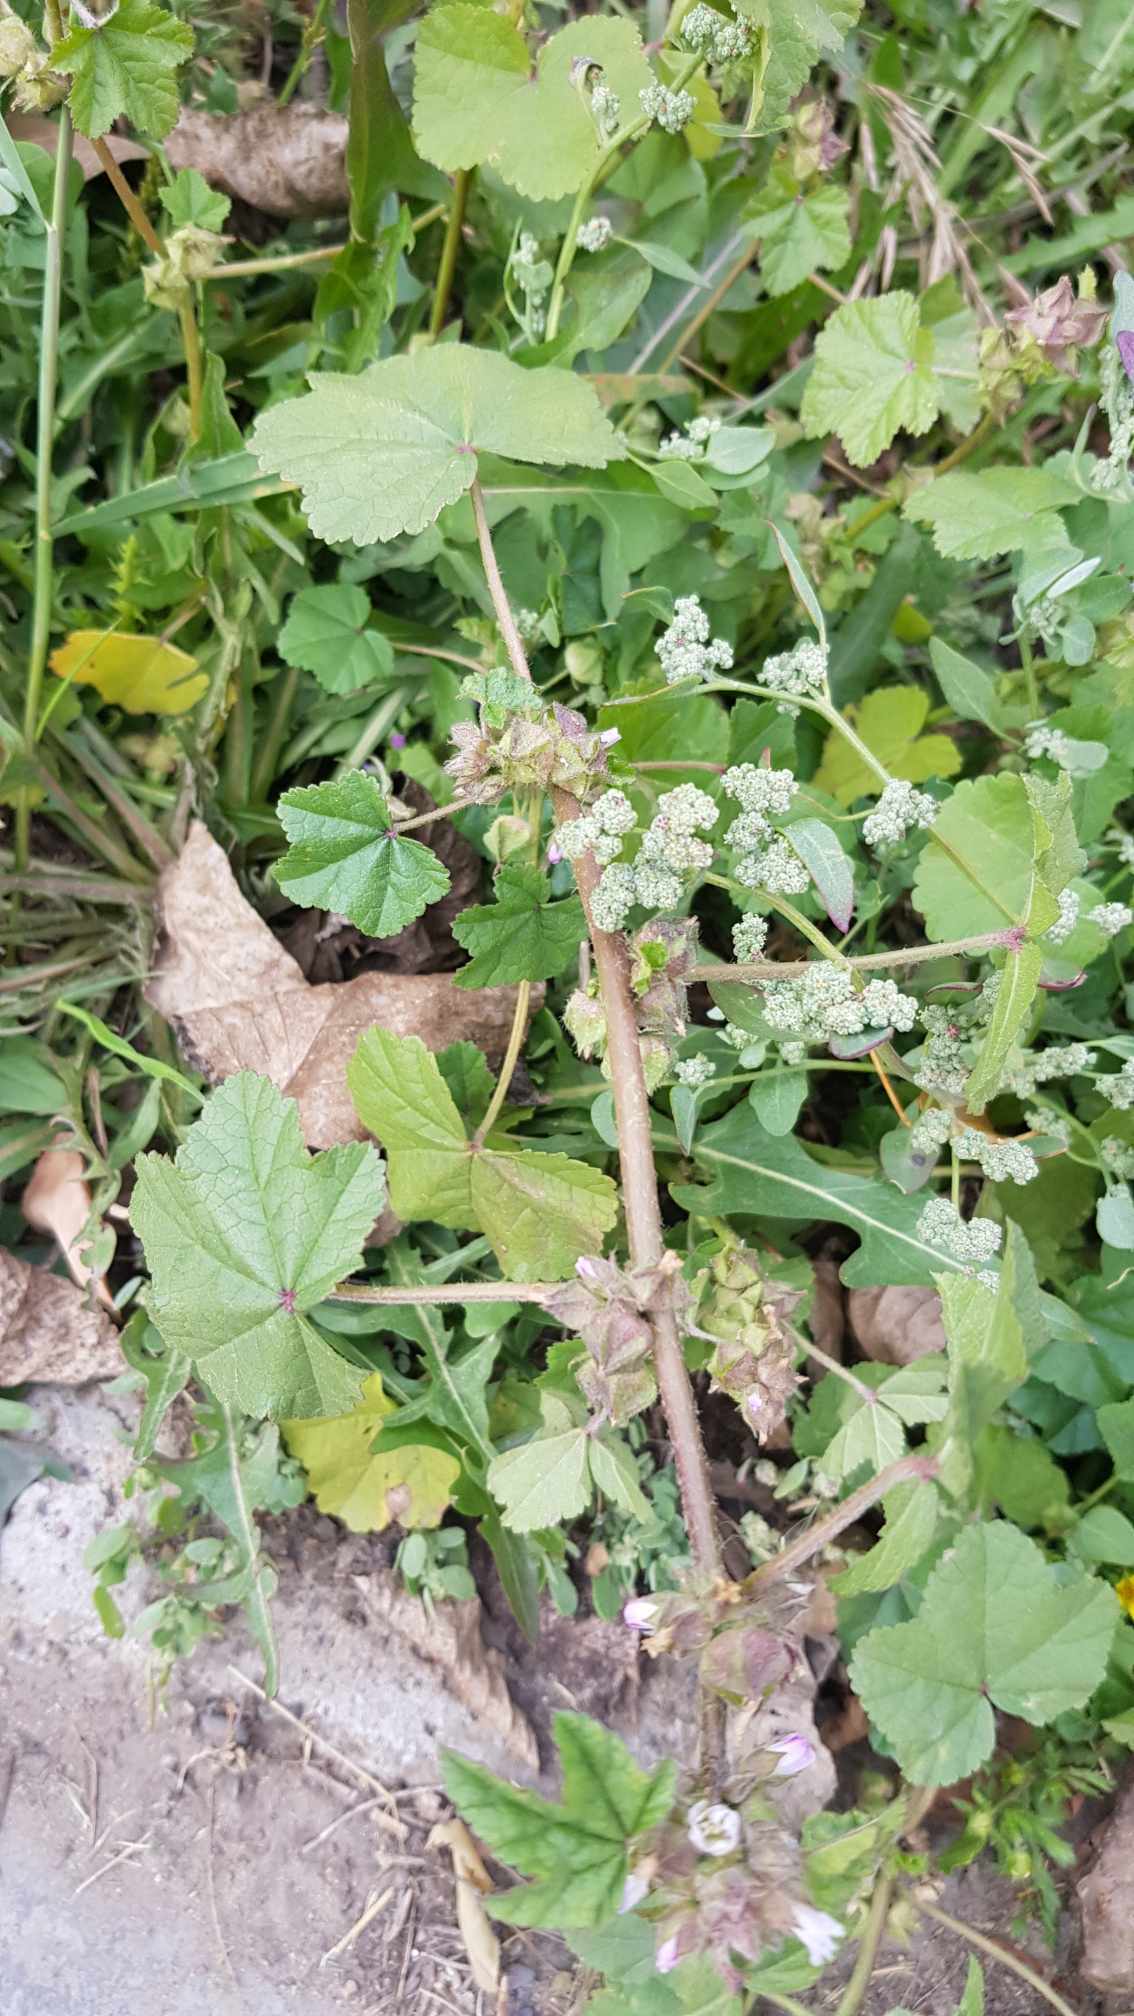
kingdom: Plantae
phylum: Tracheophyta
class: Magnoliopsida
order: Malvales
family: Malvaceae
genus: Malva
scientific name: Malva verticillata
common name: Chinese mallow
